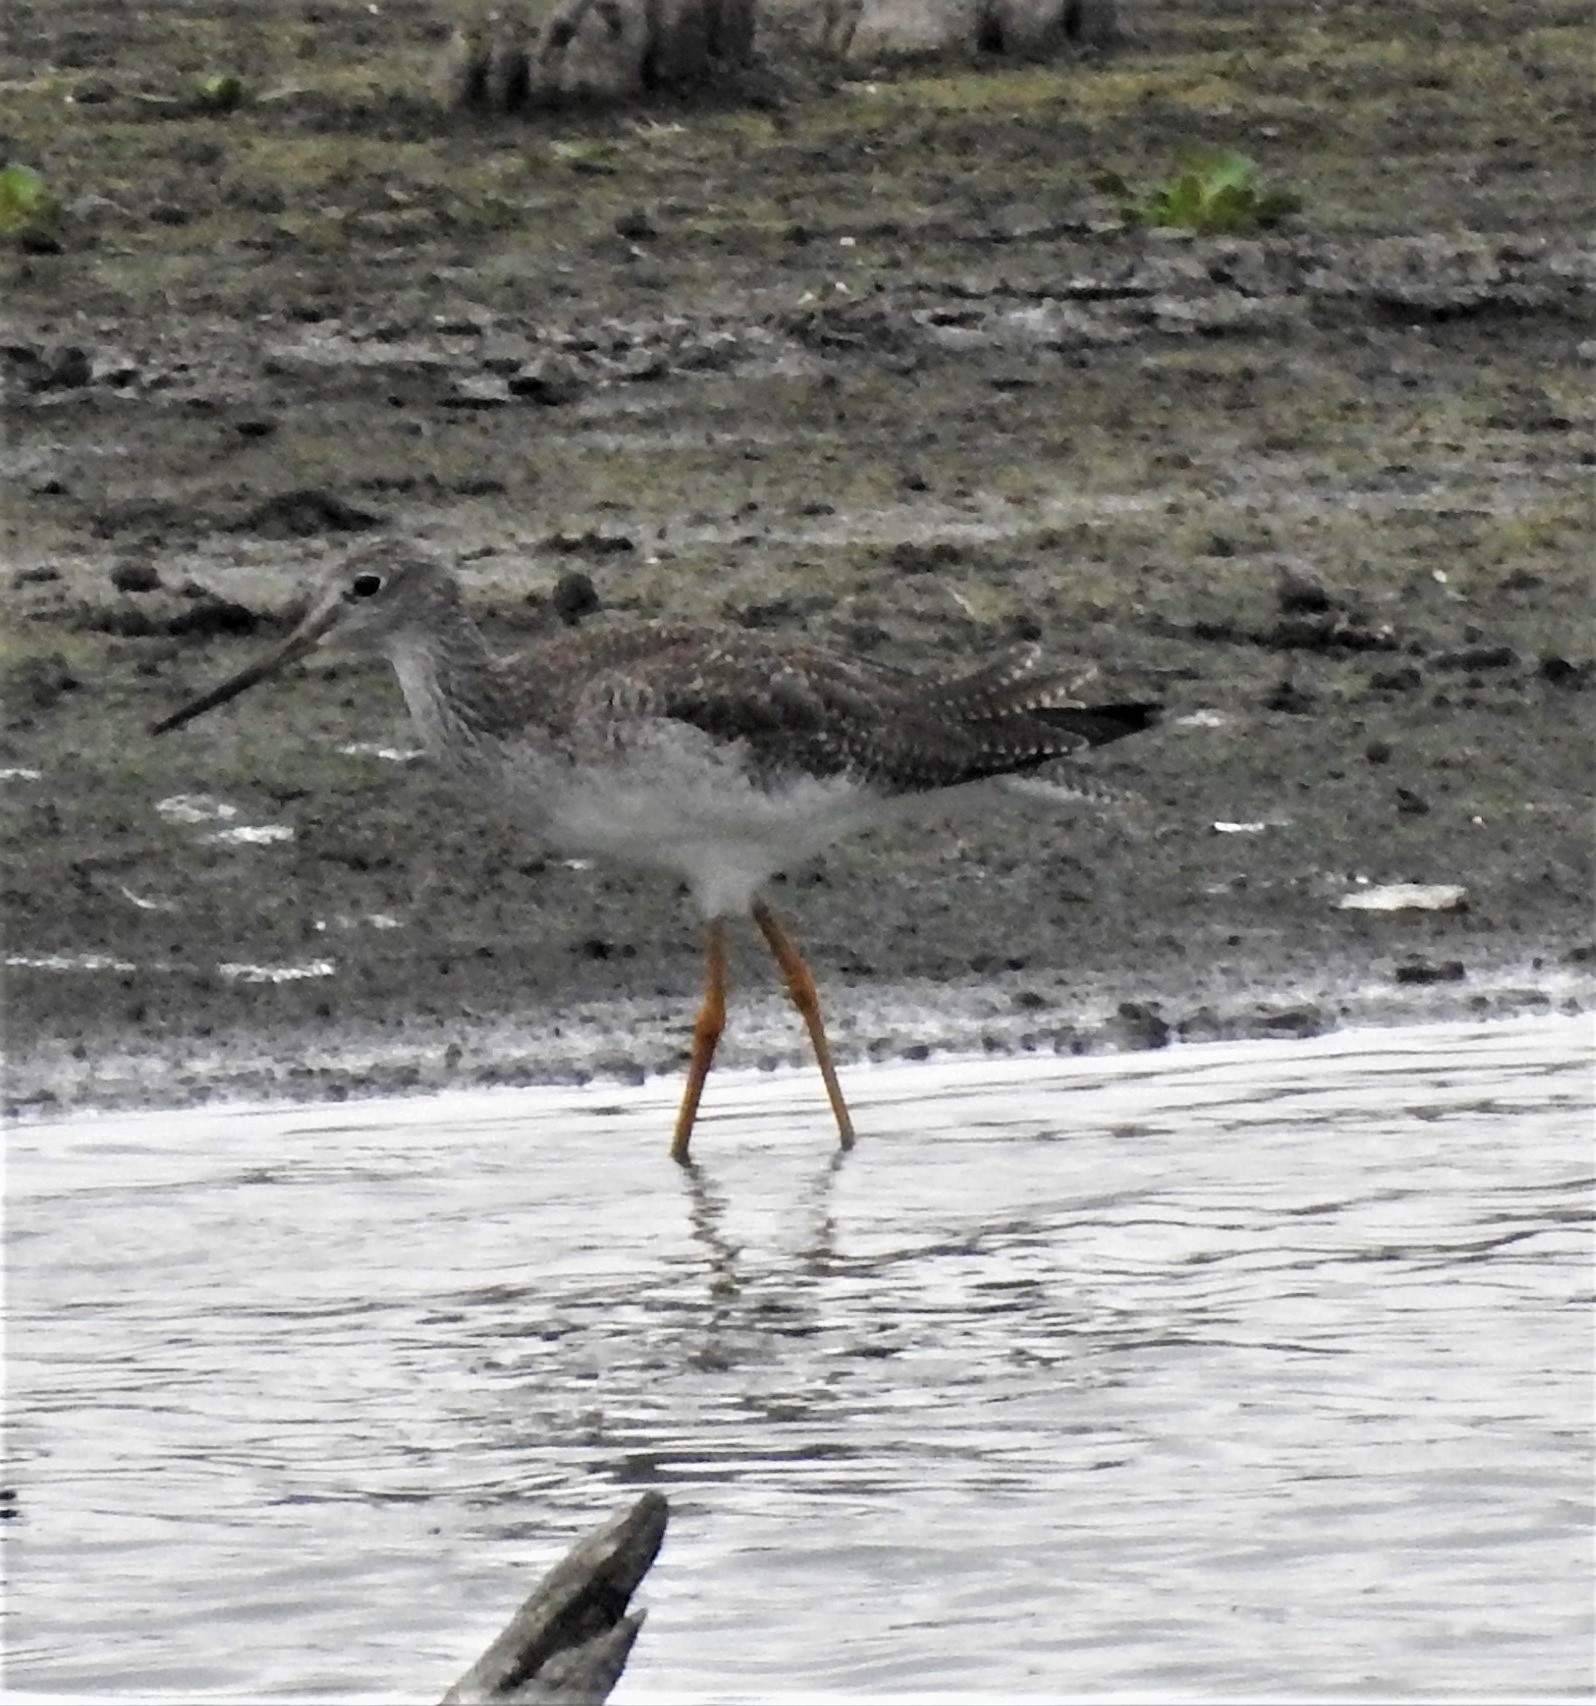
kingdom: Animalia
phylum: Chordata
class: Aves
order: Charadriiformes
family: Scolopacidae
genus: Tringa
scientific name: Tringa melanoleuca
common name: Greater yellowlegs
